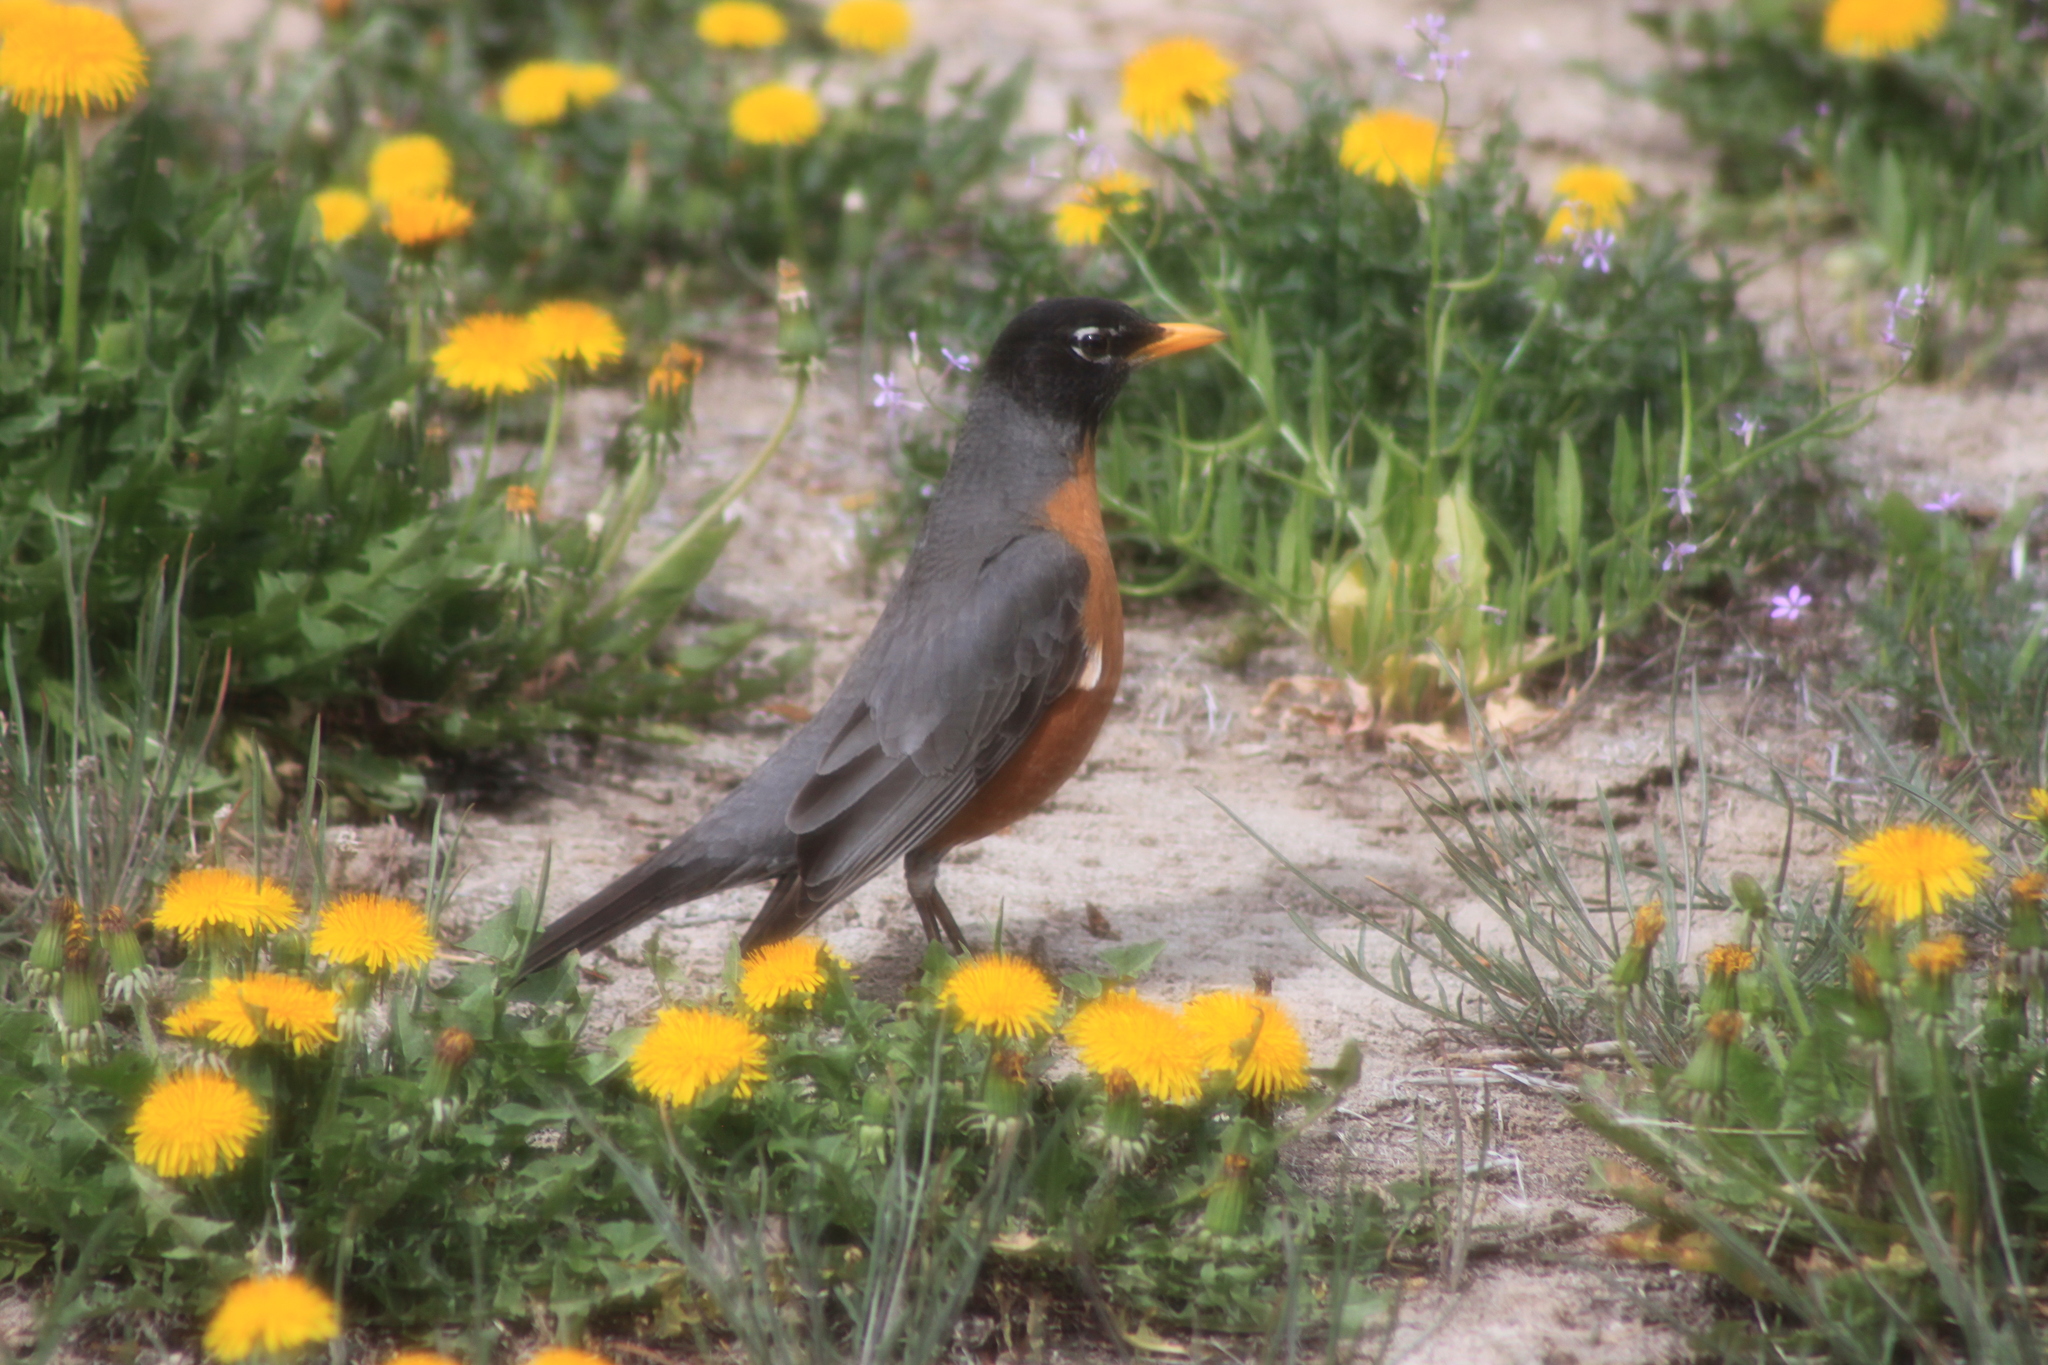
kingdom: Animalia
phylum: Chordata
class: Aves
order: Passeriformes
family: Turdidae
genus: Turdus
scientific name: Turdus migratorius
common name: American robin
